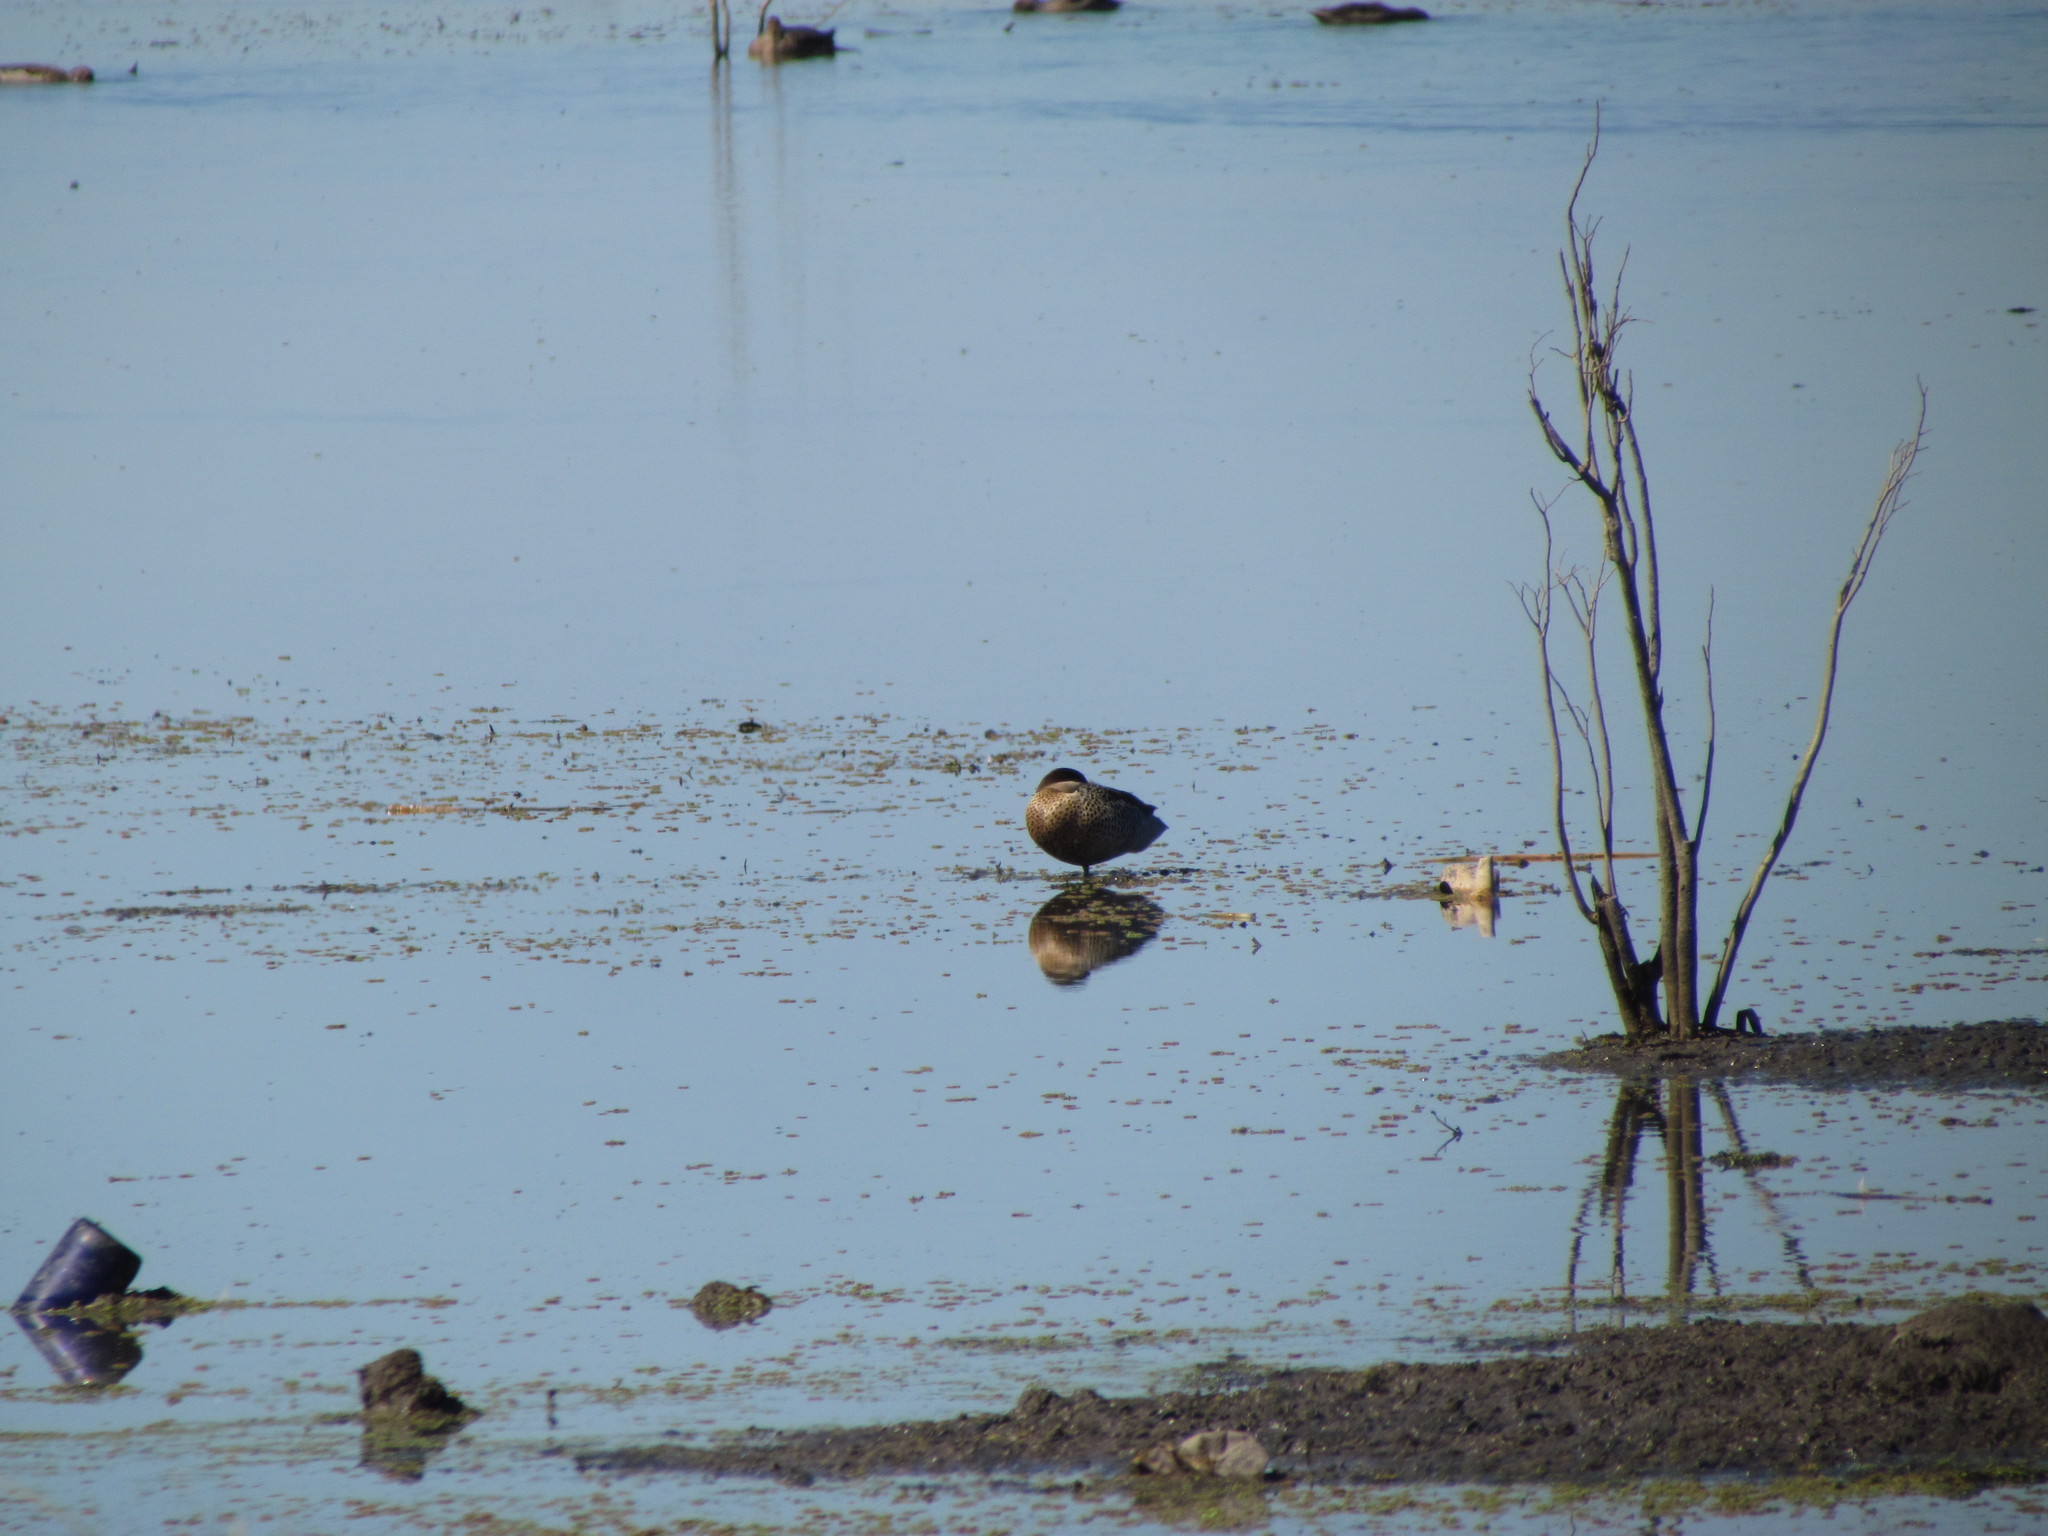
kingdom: Animalia
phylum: Chordata
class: Aves
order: Anseriformes
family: Anatidae
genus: Spatula
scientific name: Spatula versicolor
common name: Silver teal
